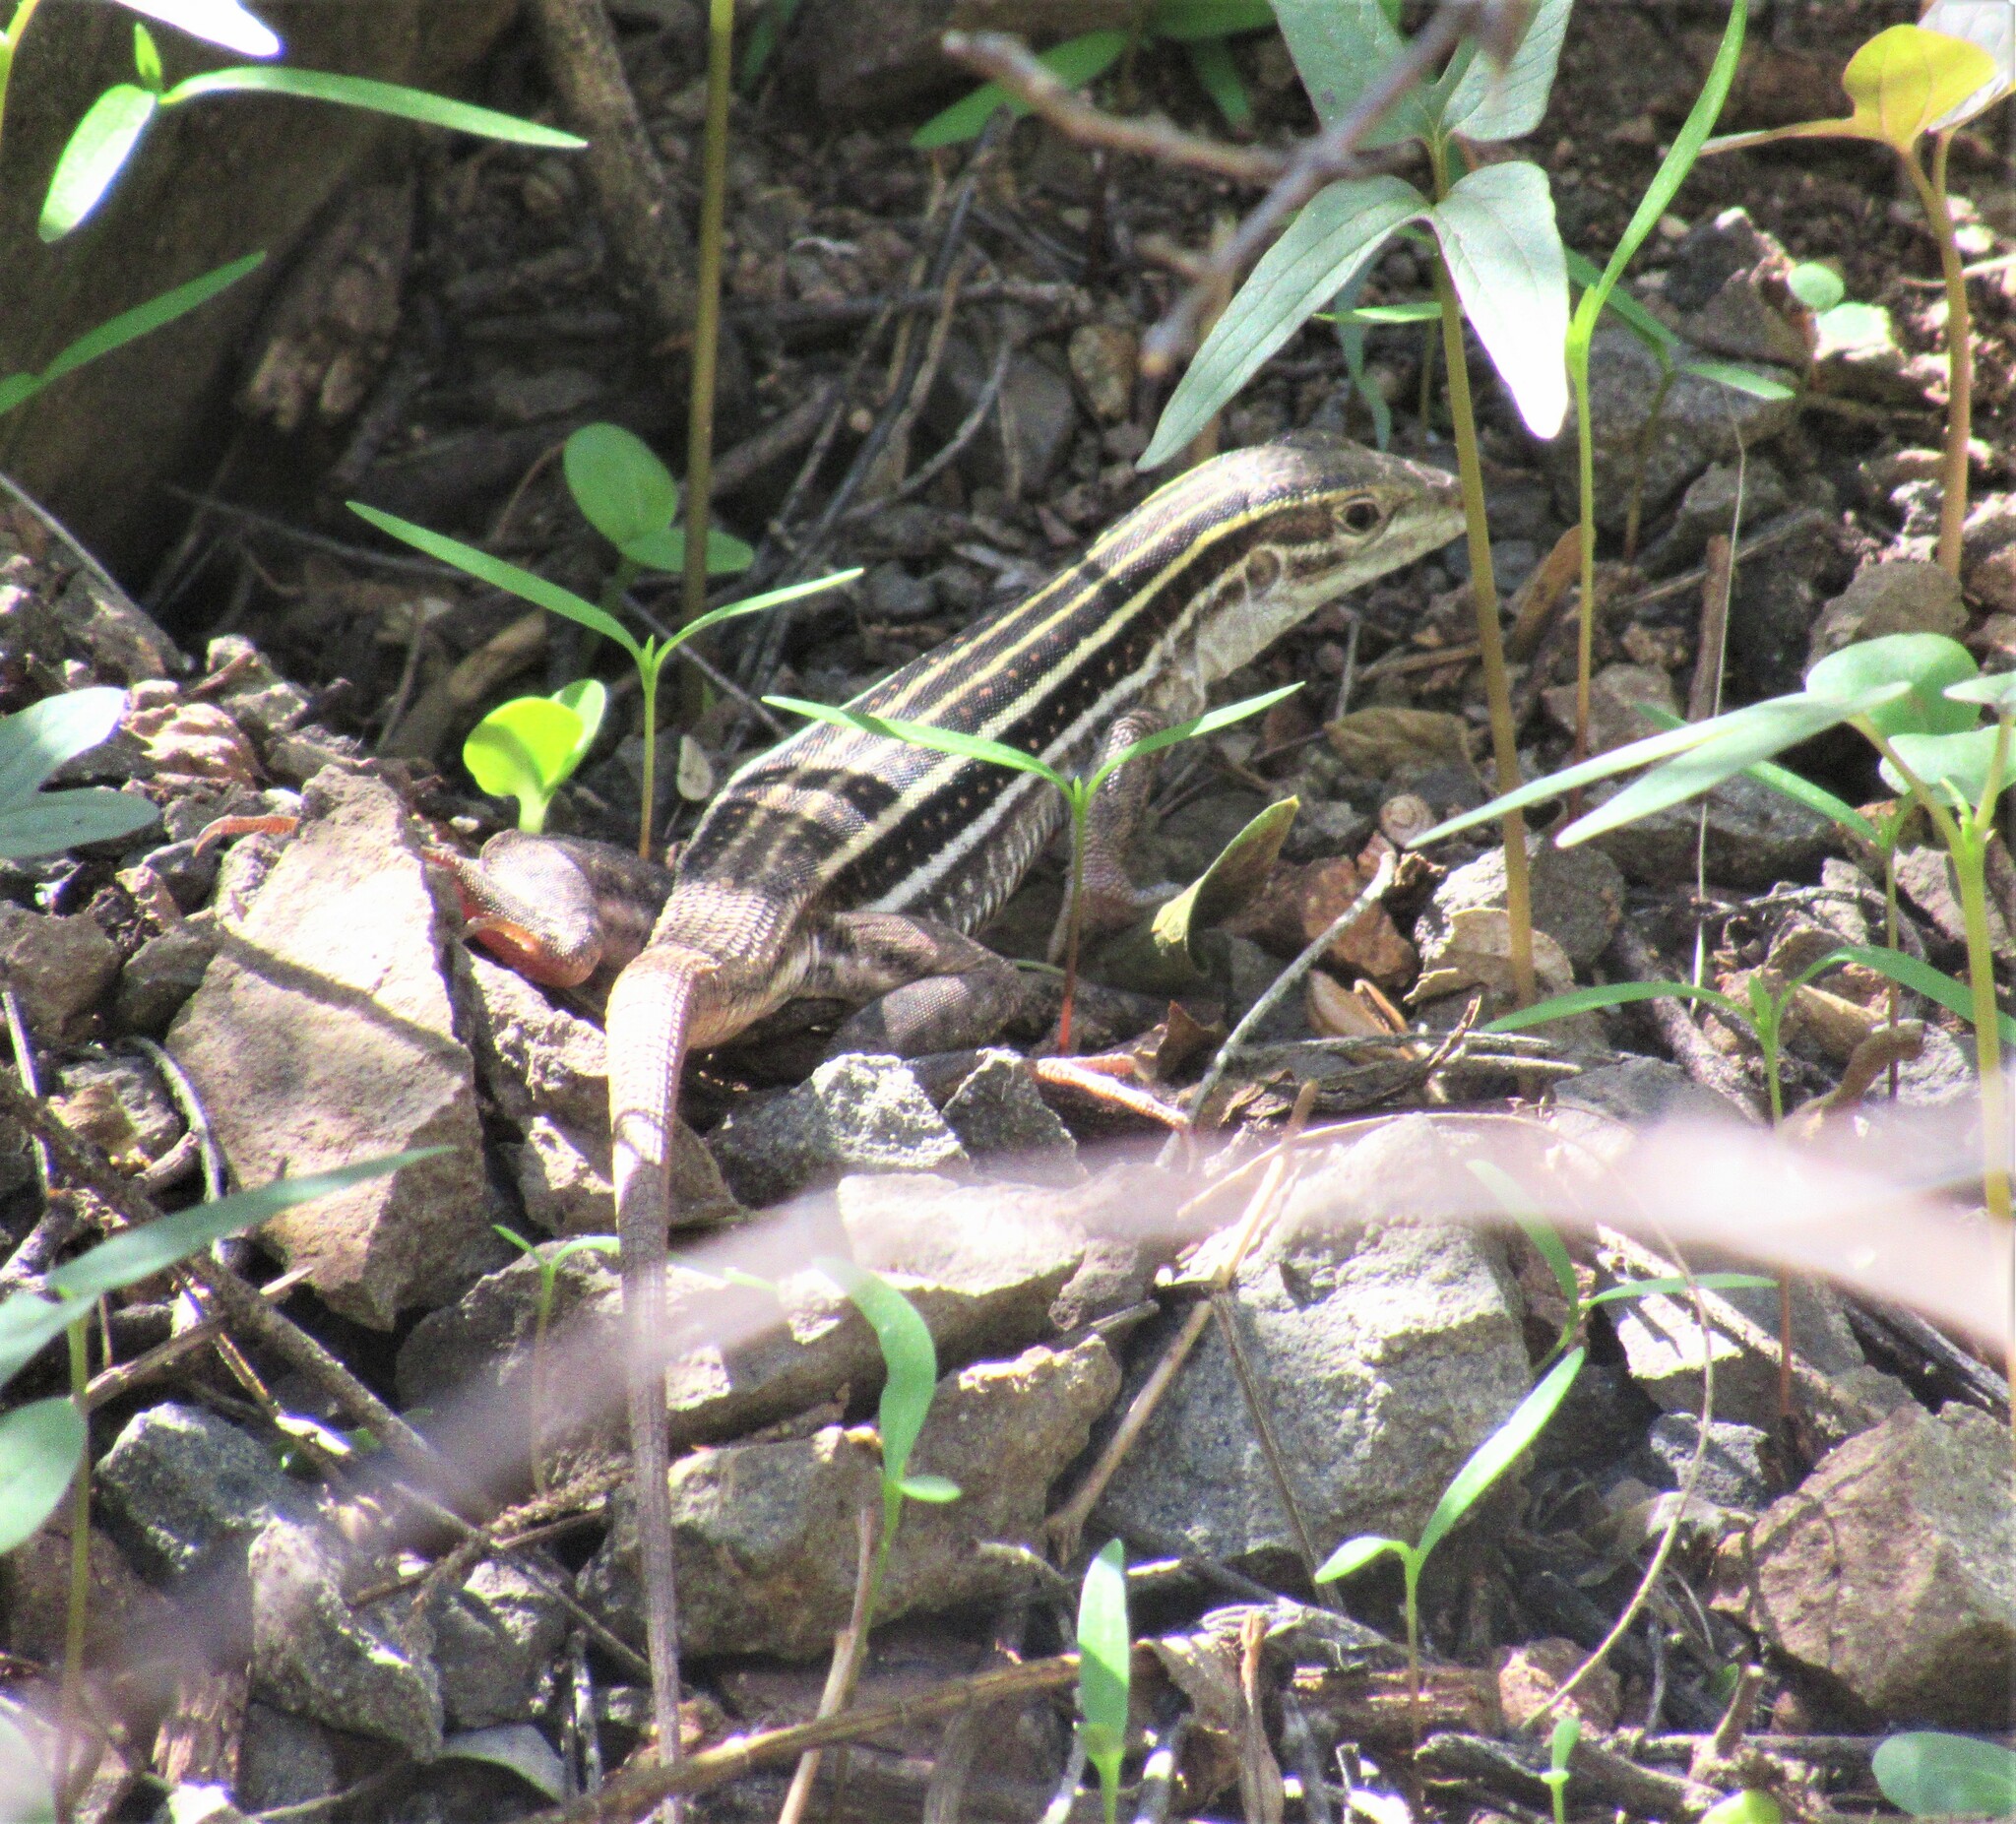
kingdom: Animalia
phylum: Chordata
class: Squamata
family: Teiidae
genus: Aspidoscelis
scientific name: Aspidoscelis sonorae
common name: Sonoran spotted whiptail
